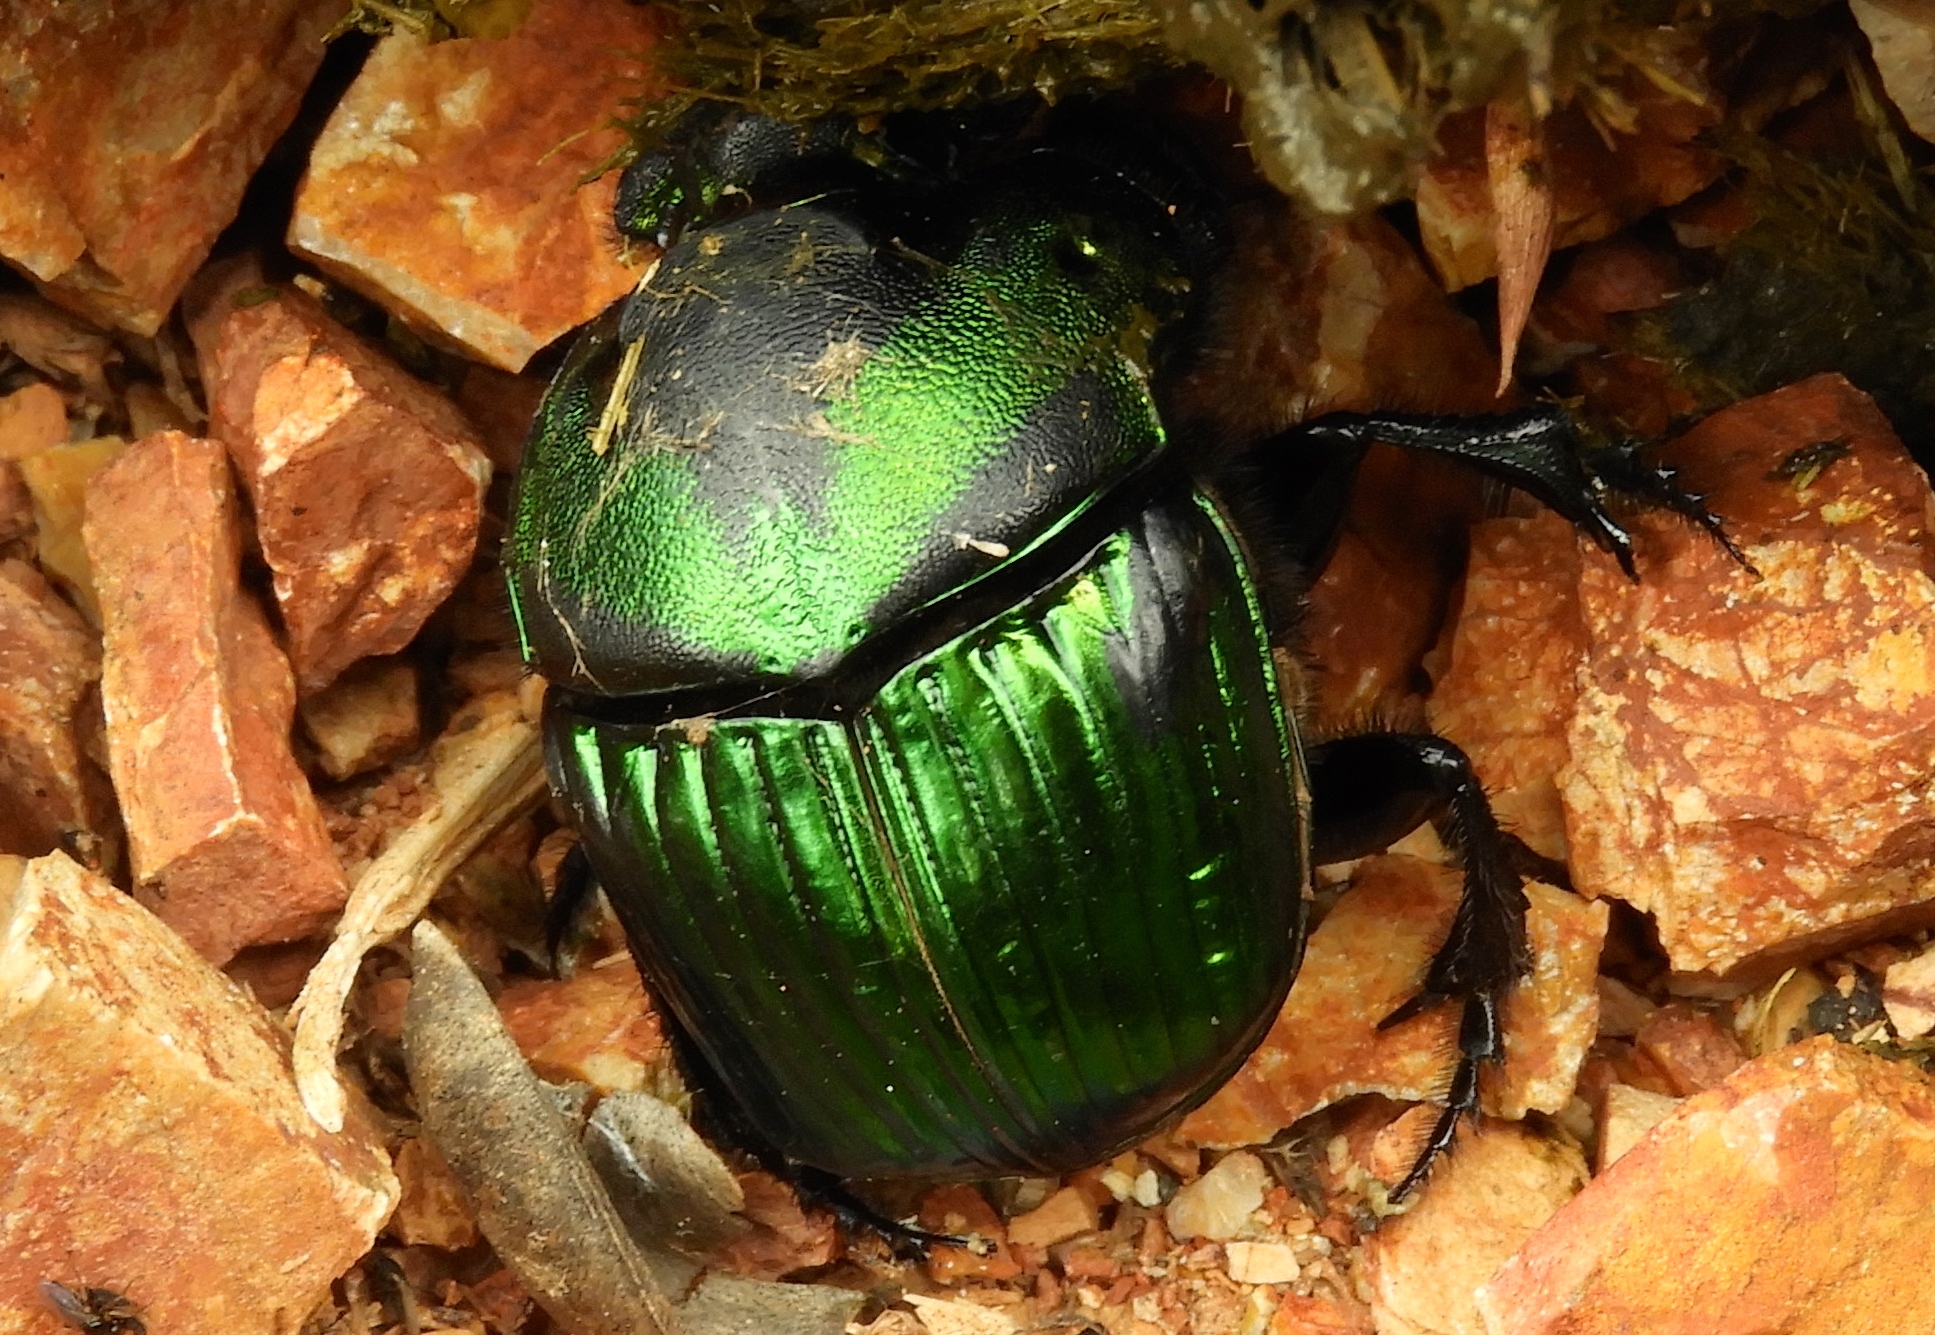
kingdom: Animalia
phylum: Arthropoda
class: Insecta
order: Coleoptera
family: Scarabaeidae
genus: Phanaeus
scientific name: Phanaeus
